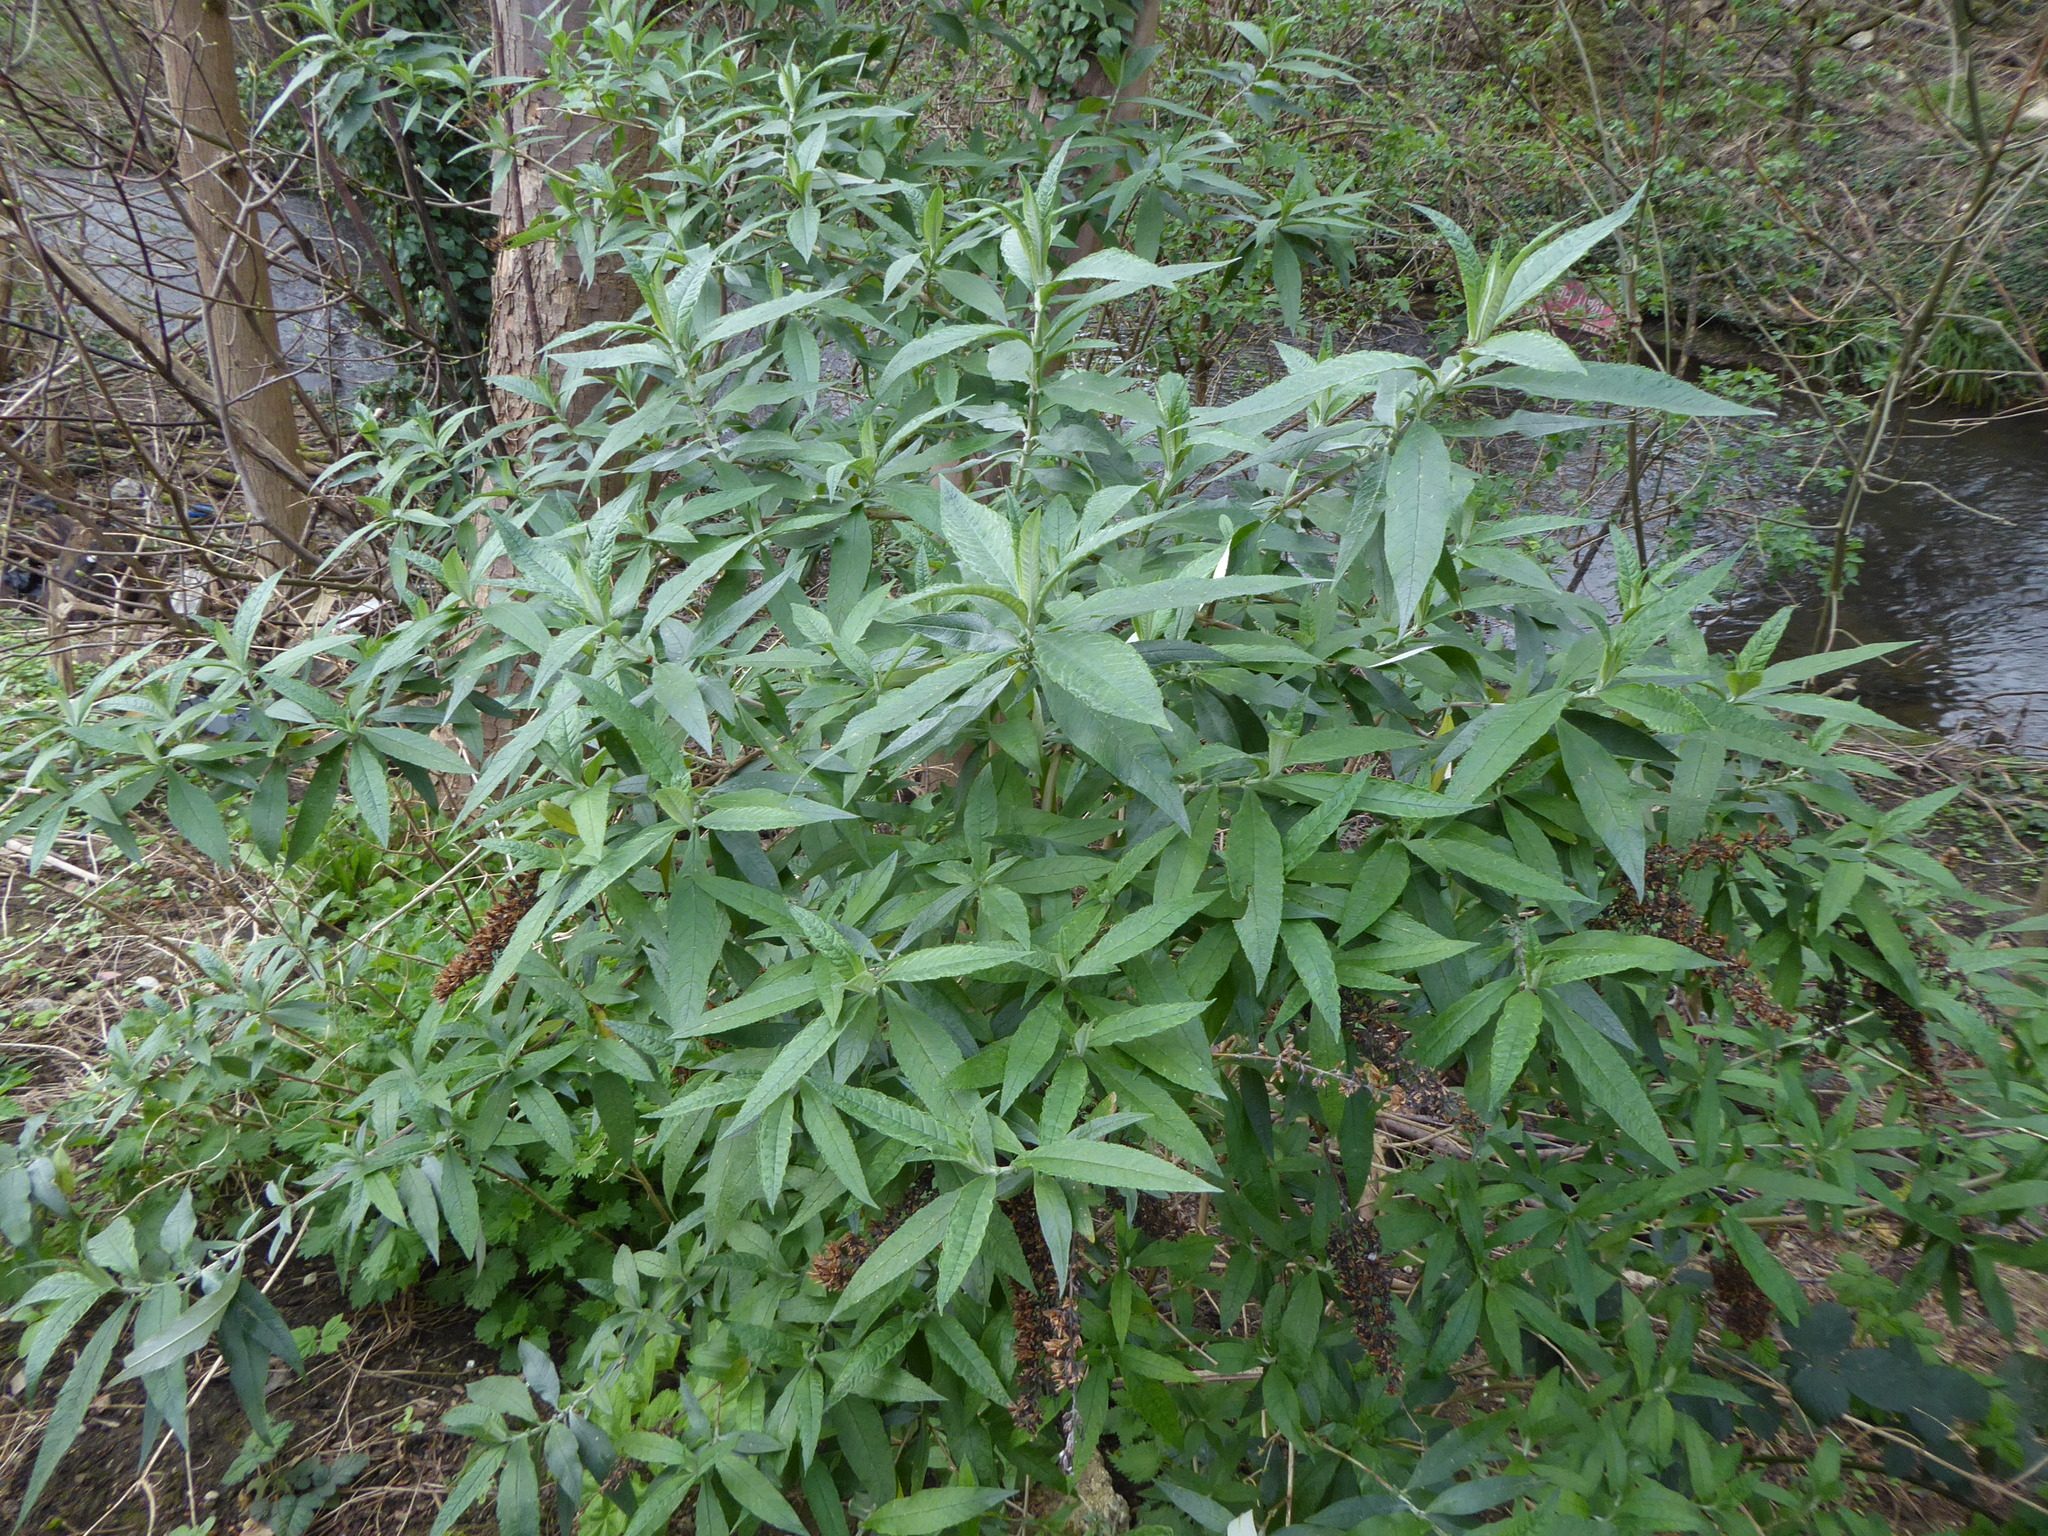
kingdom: Plantae
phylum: Tracheophyta
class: Magnoliopsida
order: Lamiales
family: Scrophulariaceae
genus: Buddleja
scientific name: Buddleja davidii
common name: Butterfly-bush
